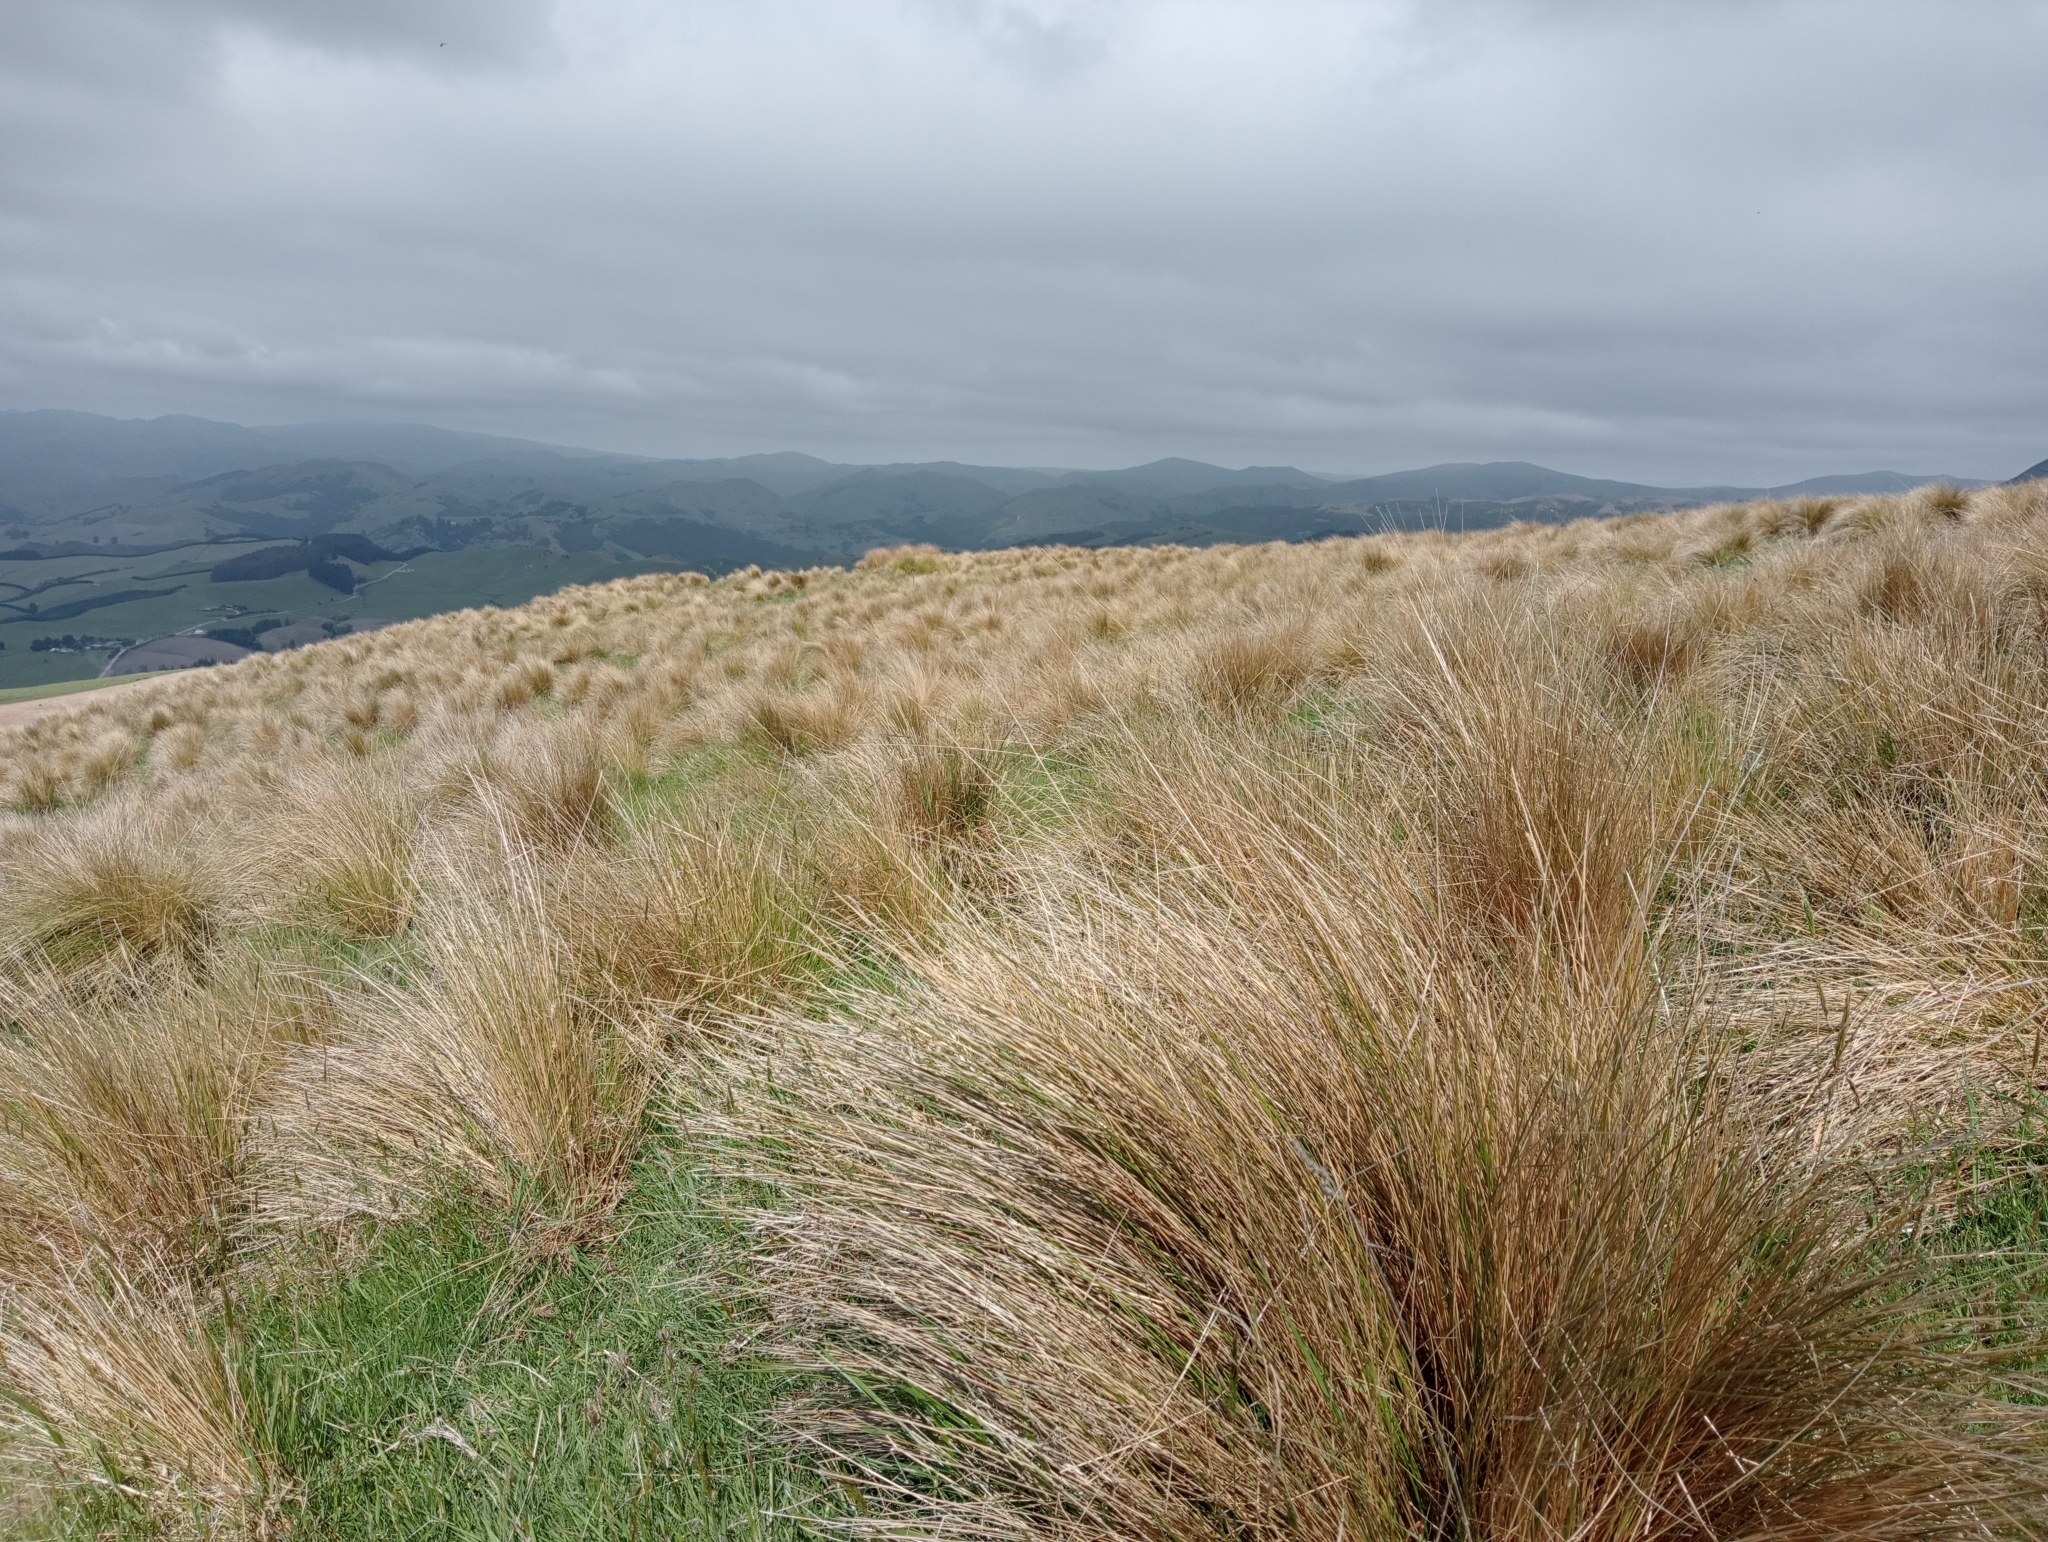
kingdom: Plantae
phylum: Tracheophyta
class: Liliopsida
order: Poales
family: Poaceae
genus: Poa
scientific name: Poa cita
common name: Silver tussock
